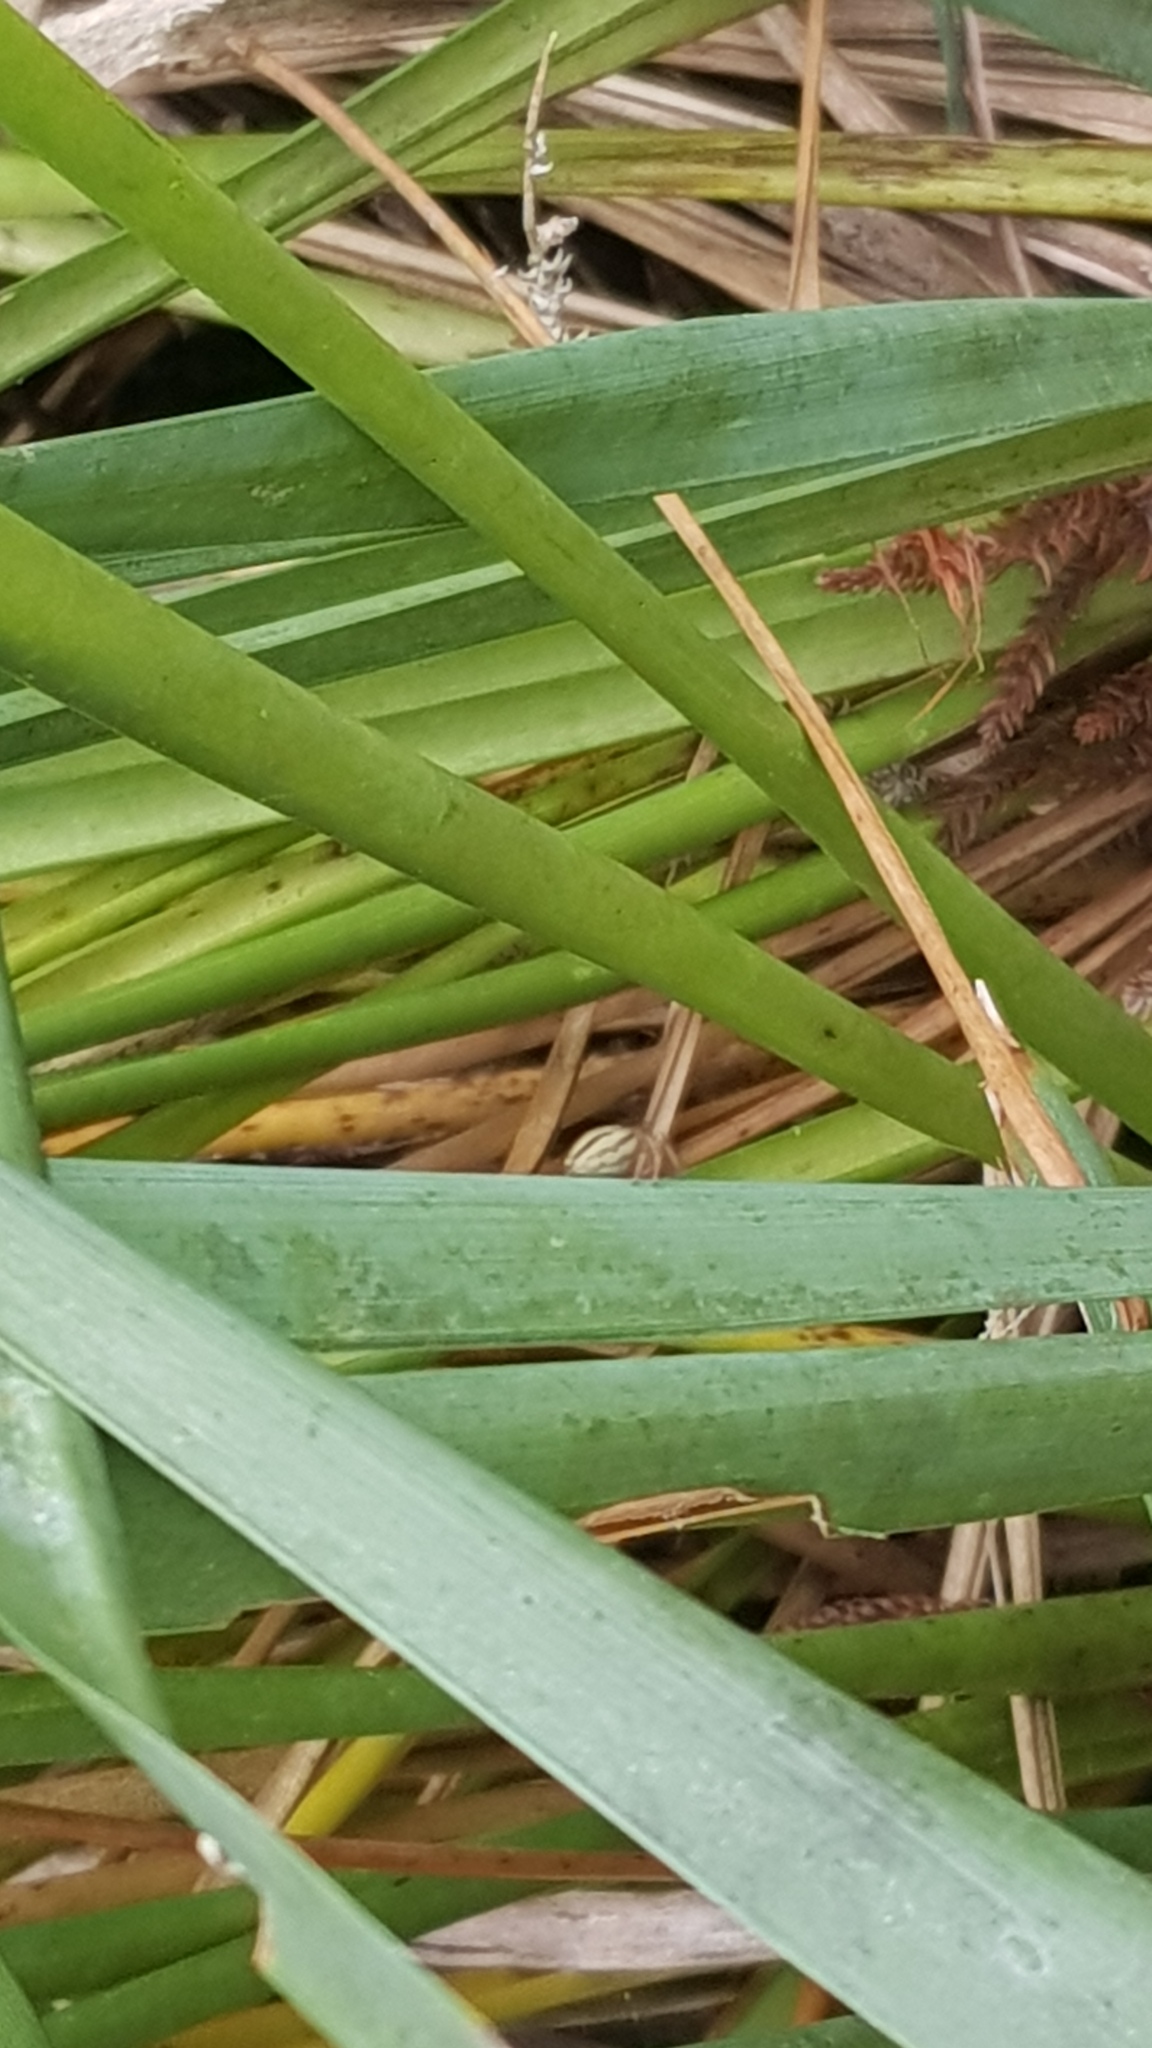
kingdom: Animalia
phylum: Arthropoda
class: Arachnida
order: Araneae
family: Salticidae
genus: Maratus
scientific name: Maratus scutulatus
